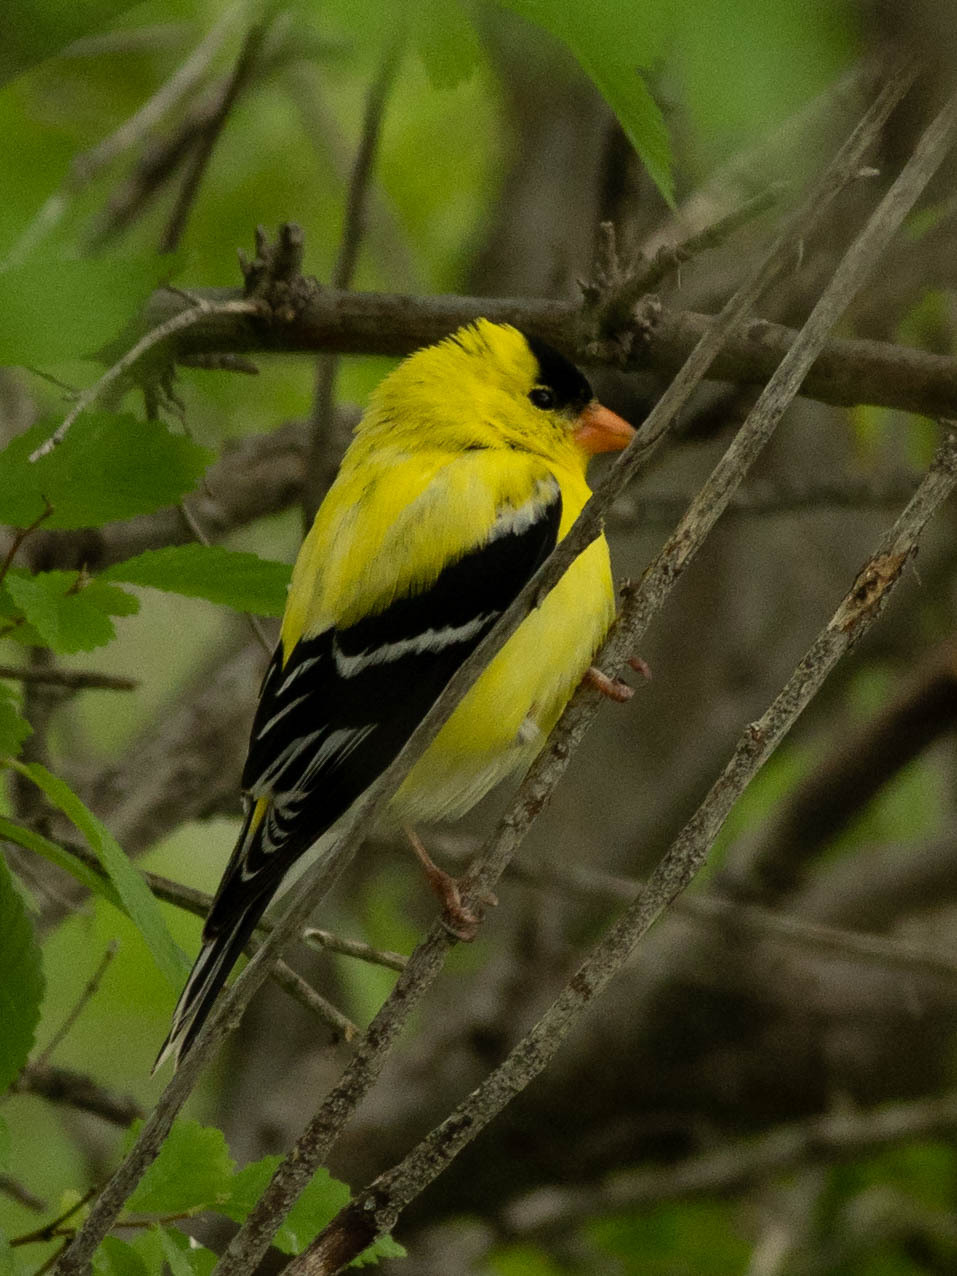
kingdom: Animalia
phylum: Chordata
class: Aves
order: Passeriformes
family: Fringillidae
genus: Spinus
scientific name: Spinus tristis
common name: American goldfinch
